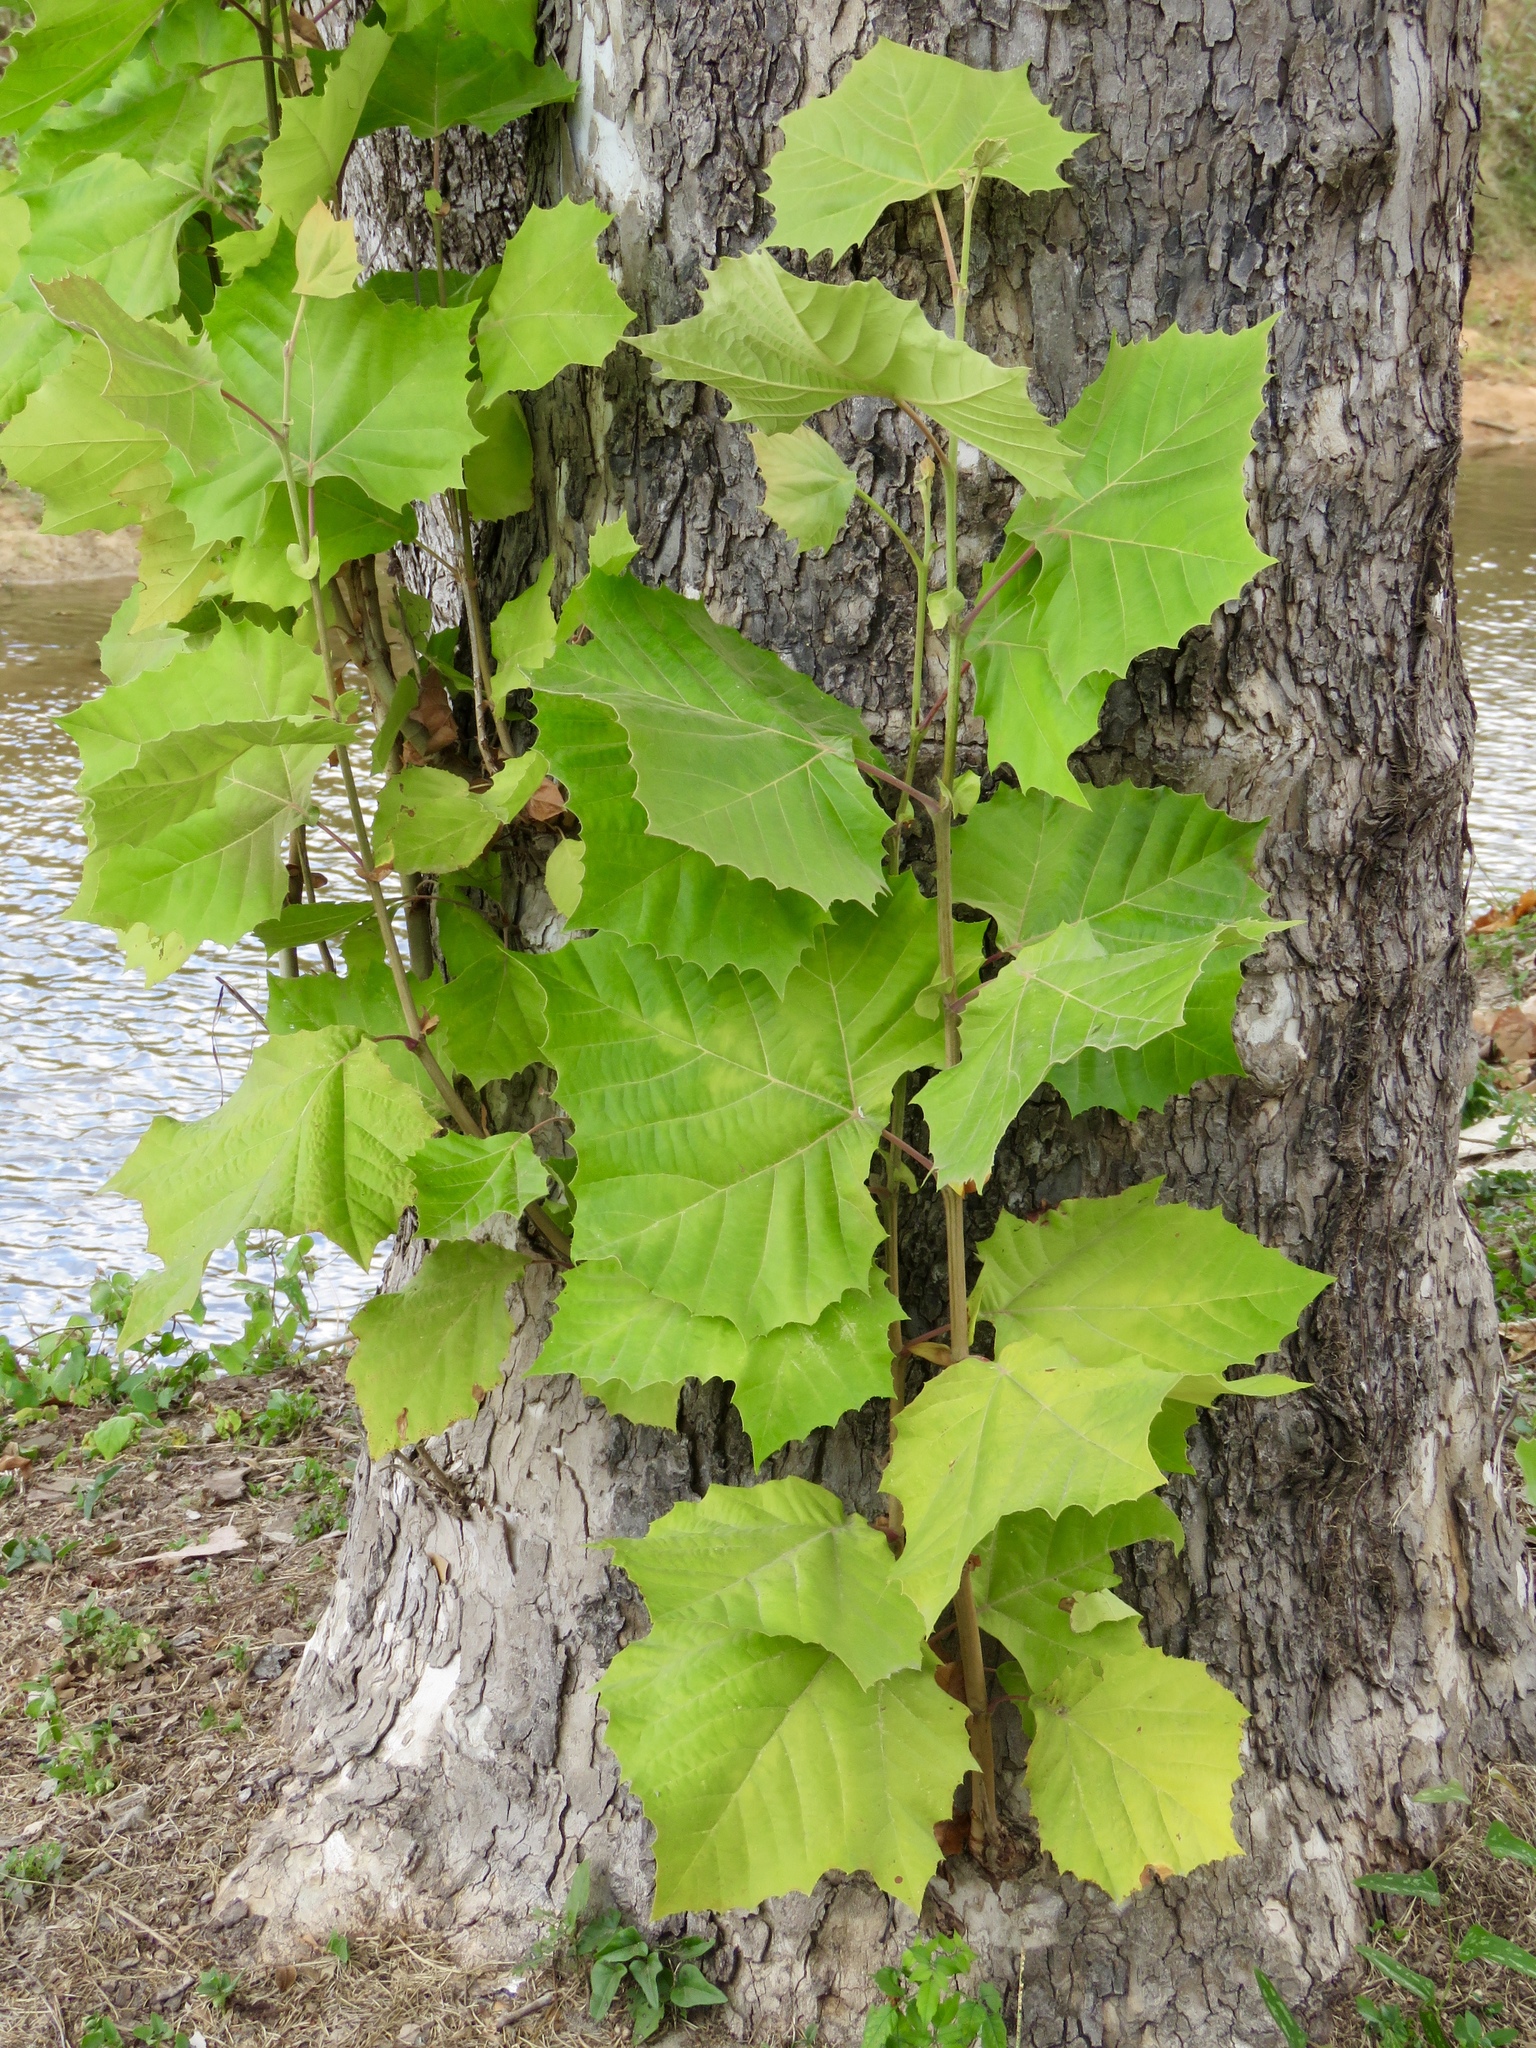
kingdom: Plantae
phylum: Tracheophyta
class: Magnoliopsida
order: Proteales
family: Platanaceae
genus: Platanus
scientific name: Platanus occidentalis
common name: American sycamore
